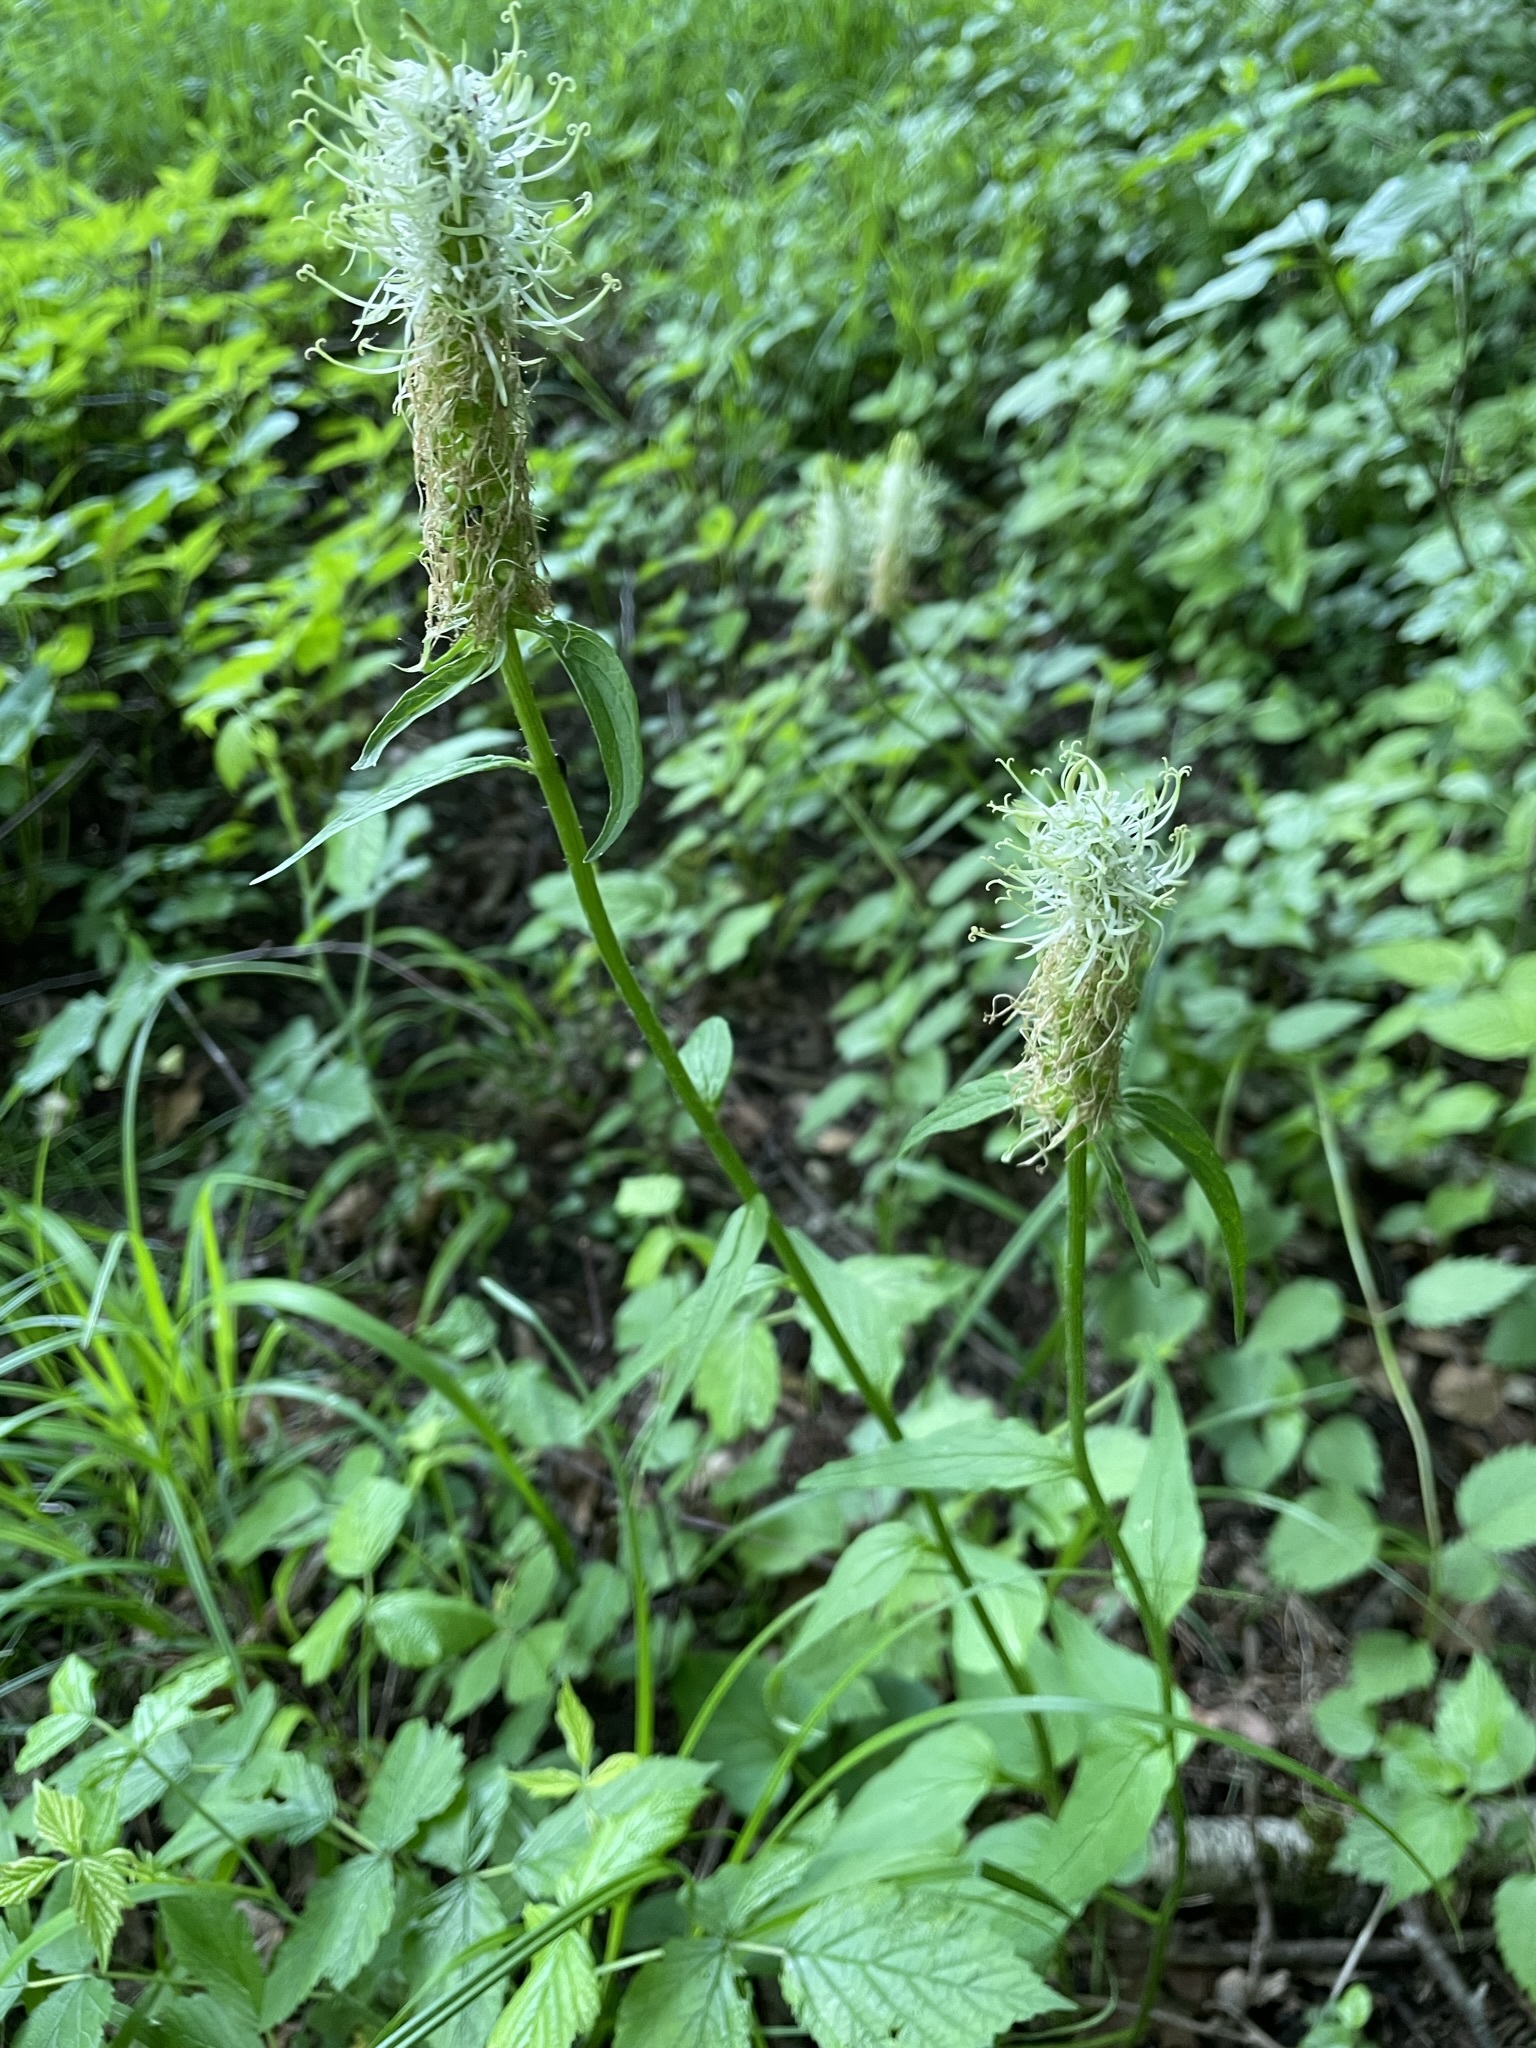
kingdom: Plantae
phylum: Tracheophyta
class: Magnoliopsida
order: Asterales
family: Campanulaceae
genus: Phyteuma
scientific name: Phyteuma spicatum
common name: Spiked rampion
